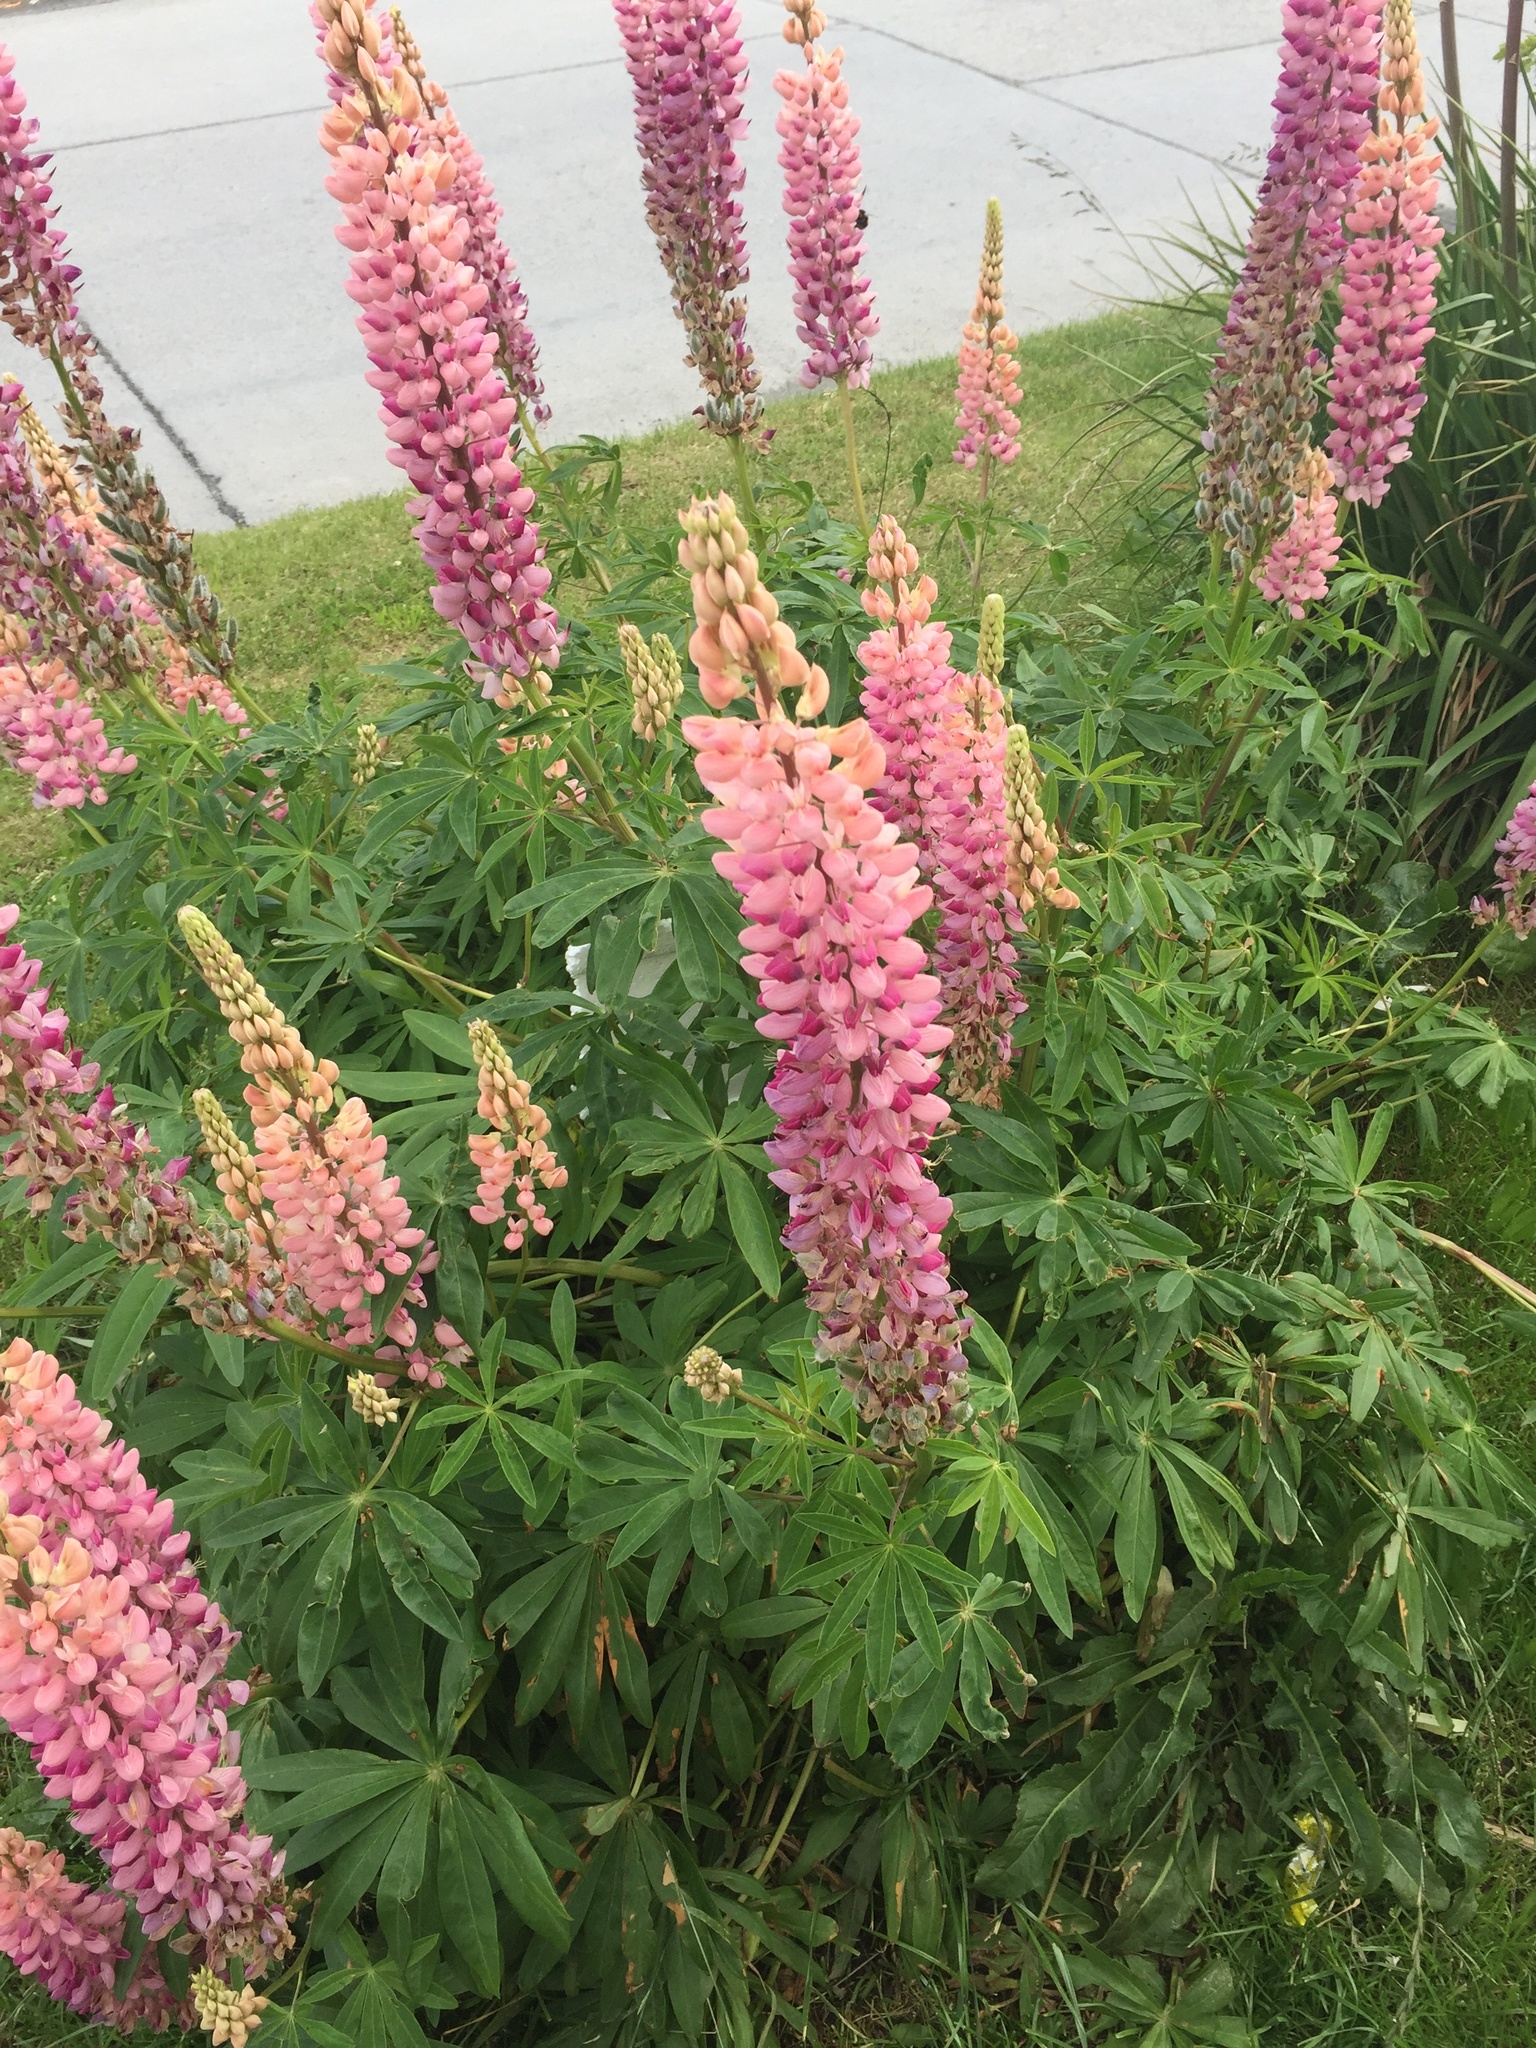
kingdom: Plantae
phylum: Tracheophyta
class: Magnoliopsida
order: Fabales
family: Fabaceae
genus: Lupinus
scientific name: Lupinus polyphyllus
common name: Garden lupin
